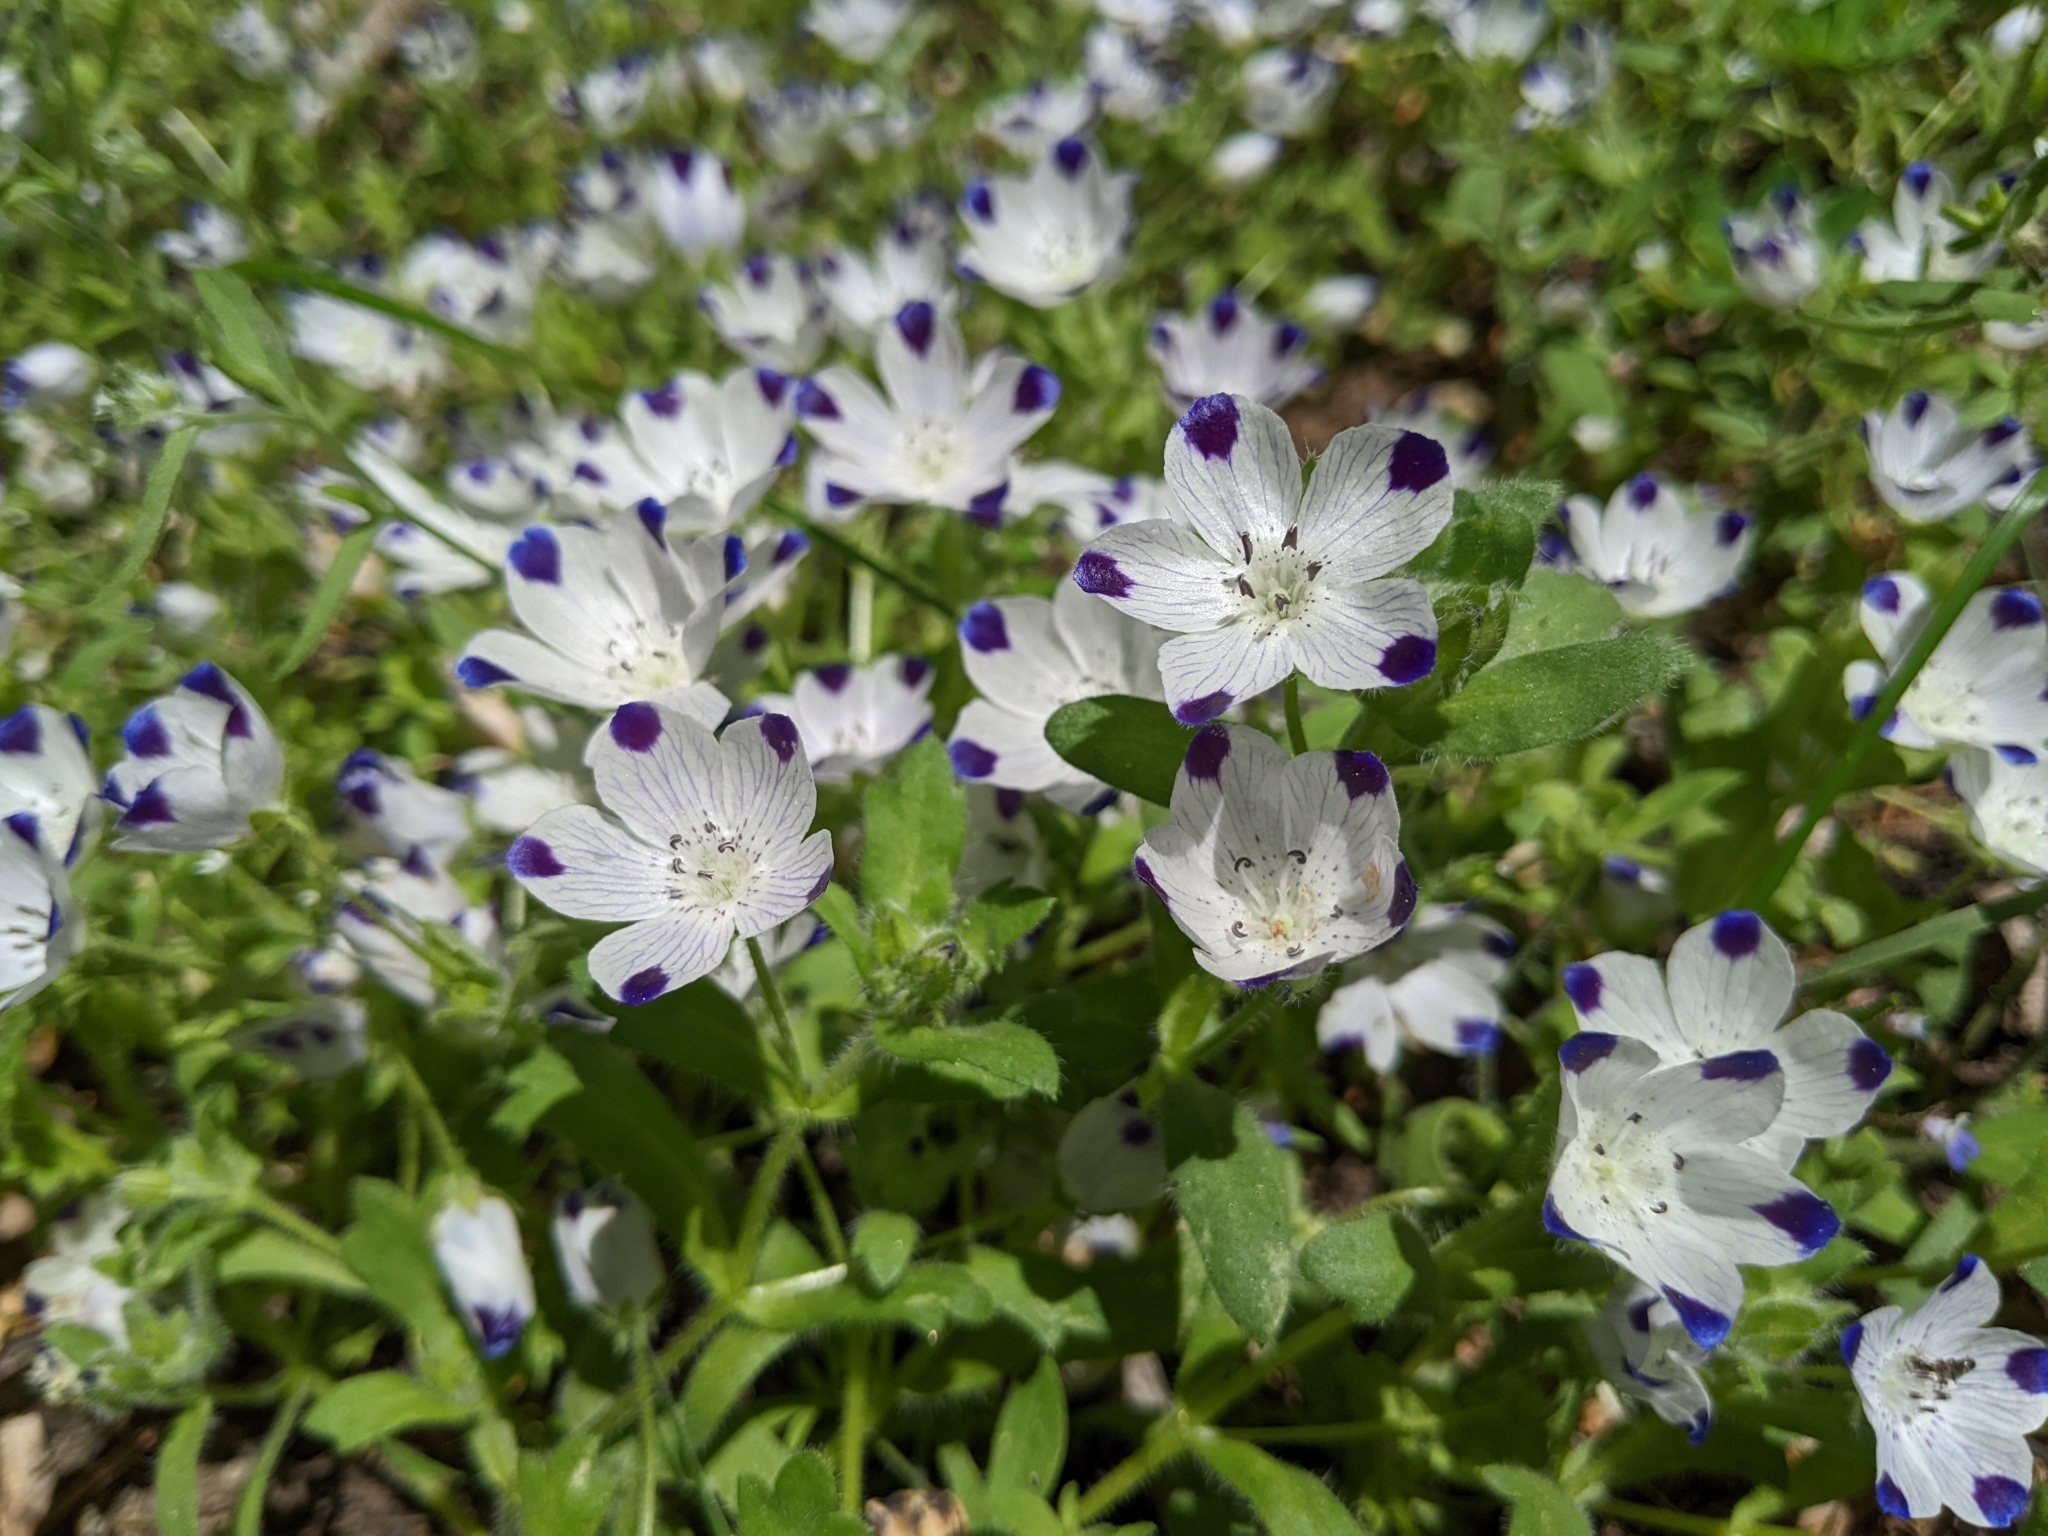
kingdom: Plantae
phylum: Tracheophyta
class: Magnoliopsida
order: Boraginales
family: Hydrophyllaceae
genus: Nemophila
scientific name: Nemophila maculata
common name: Fivespot
